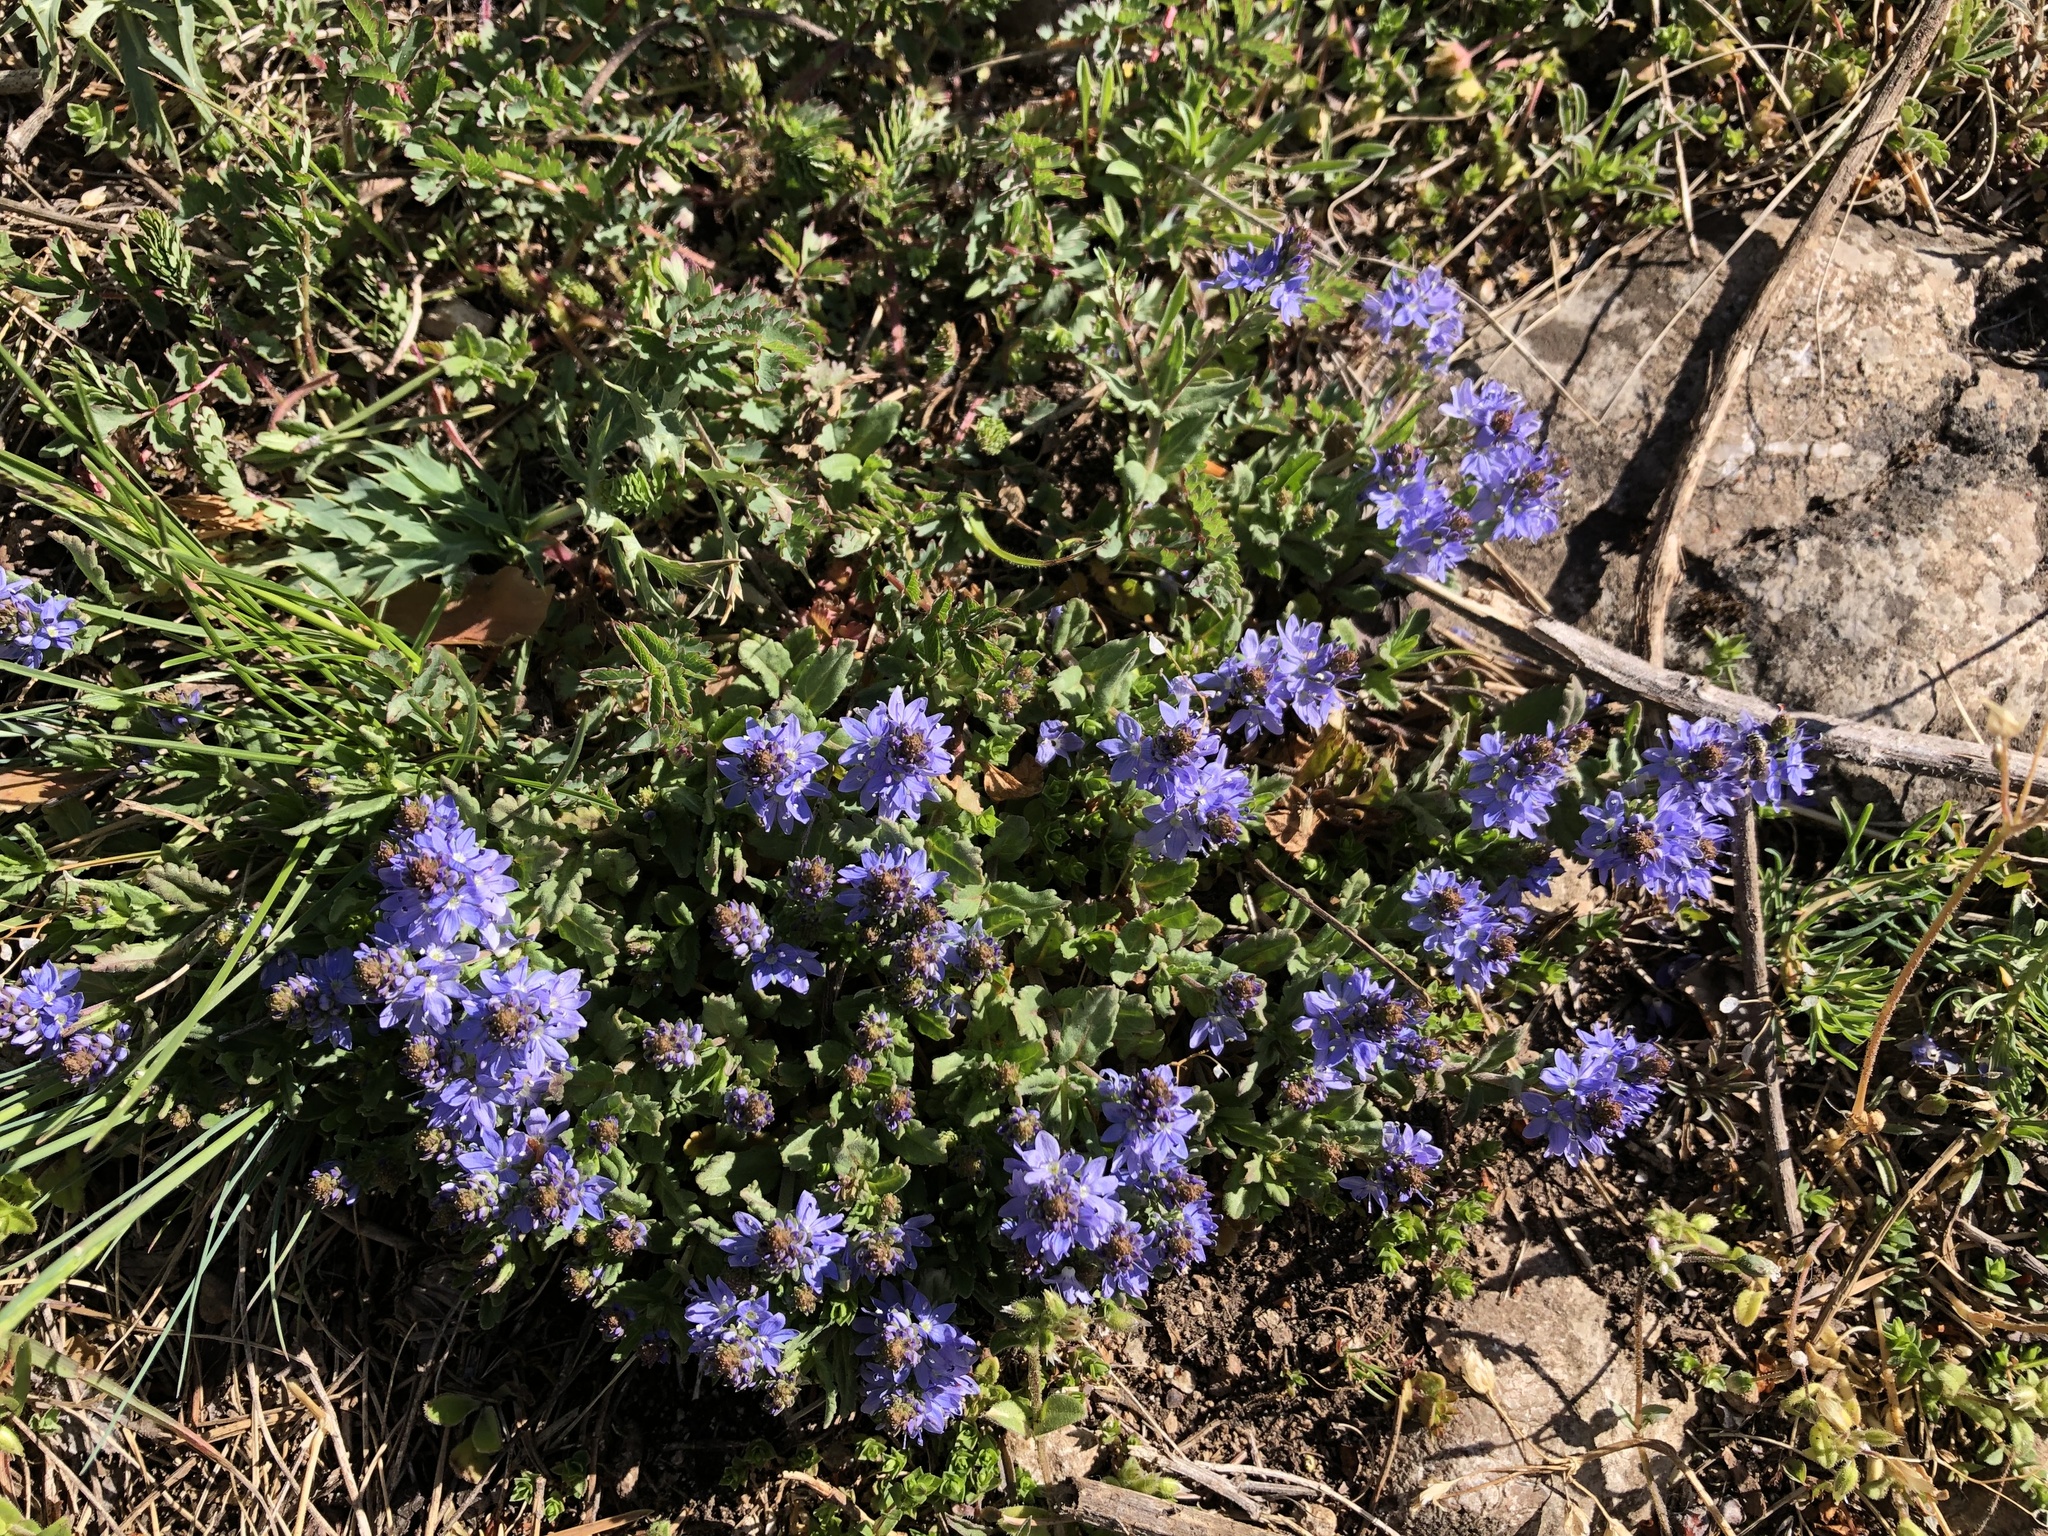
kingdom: Plantae
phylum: Tracheophyta
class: Magnoliopsida
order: Lamiales
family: Plantaginaceae
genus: Veronica
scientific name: Veronica prostrata
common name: Prostrate speedwell
